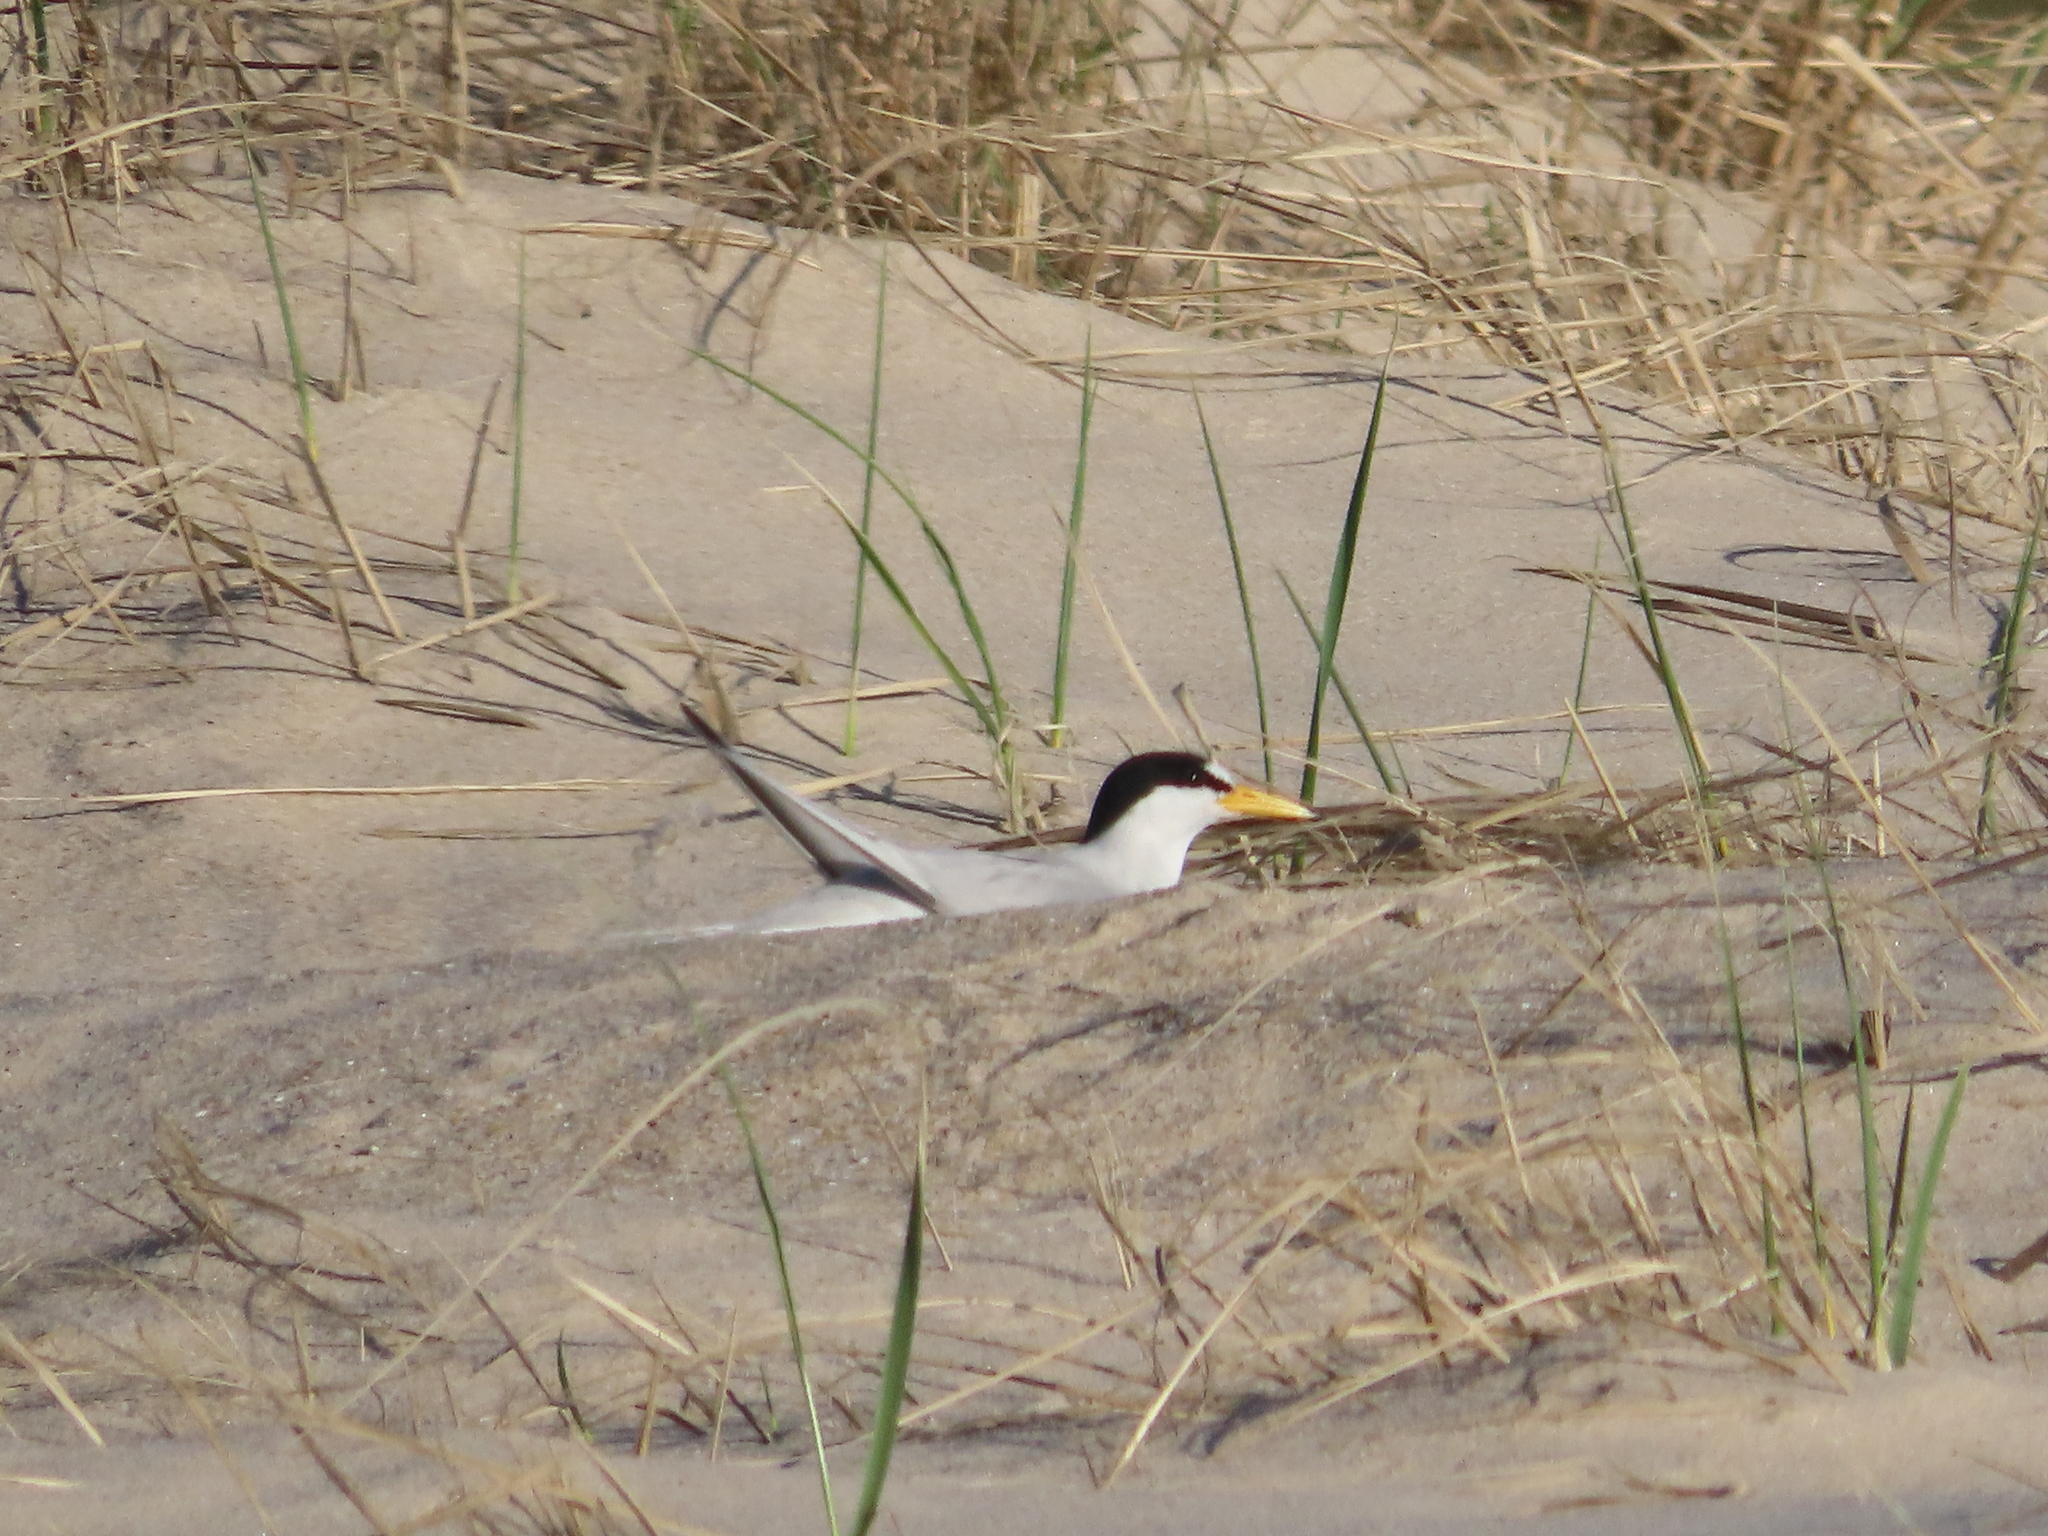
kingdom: Animalia
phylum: Chordata
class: Aves
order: Charadriiformes
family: Laridae
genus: Sternula
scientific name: Sternula antillarum
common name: Least tern
